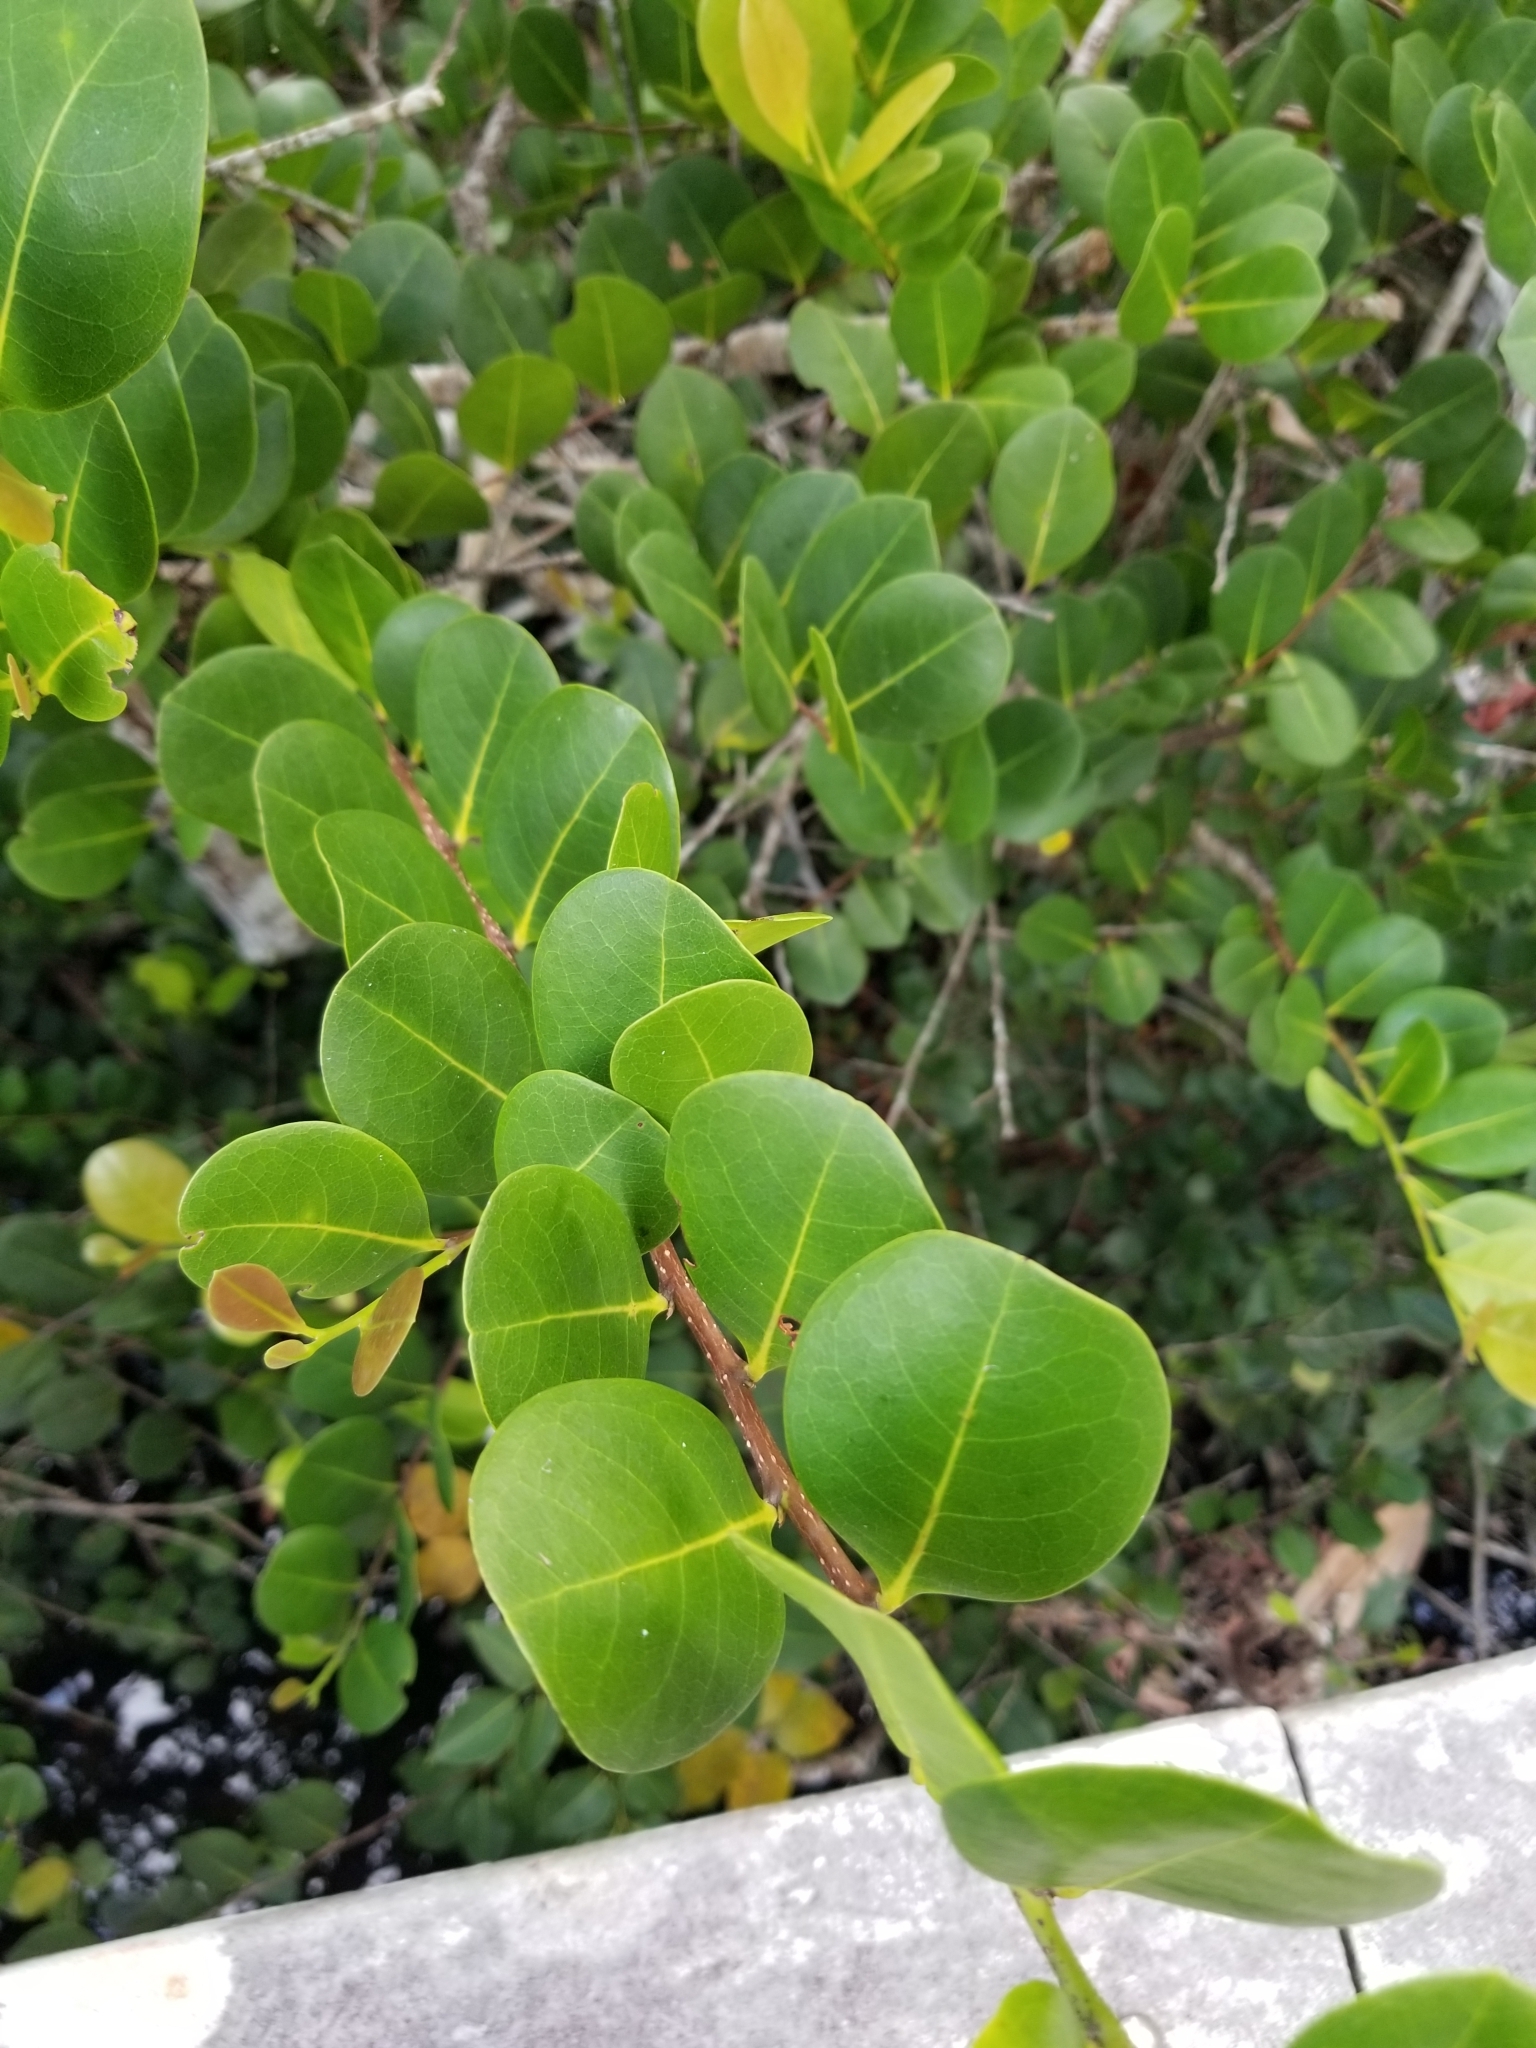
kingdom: Plantae
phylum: Tracheophyta
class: Magnoliopsida
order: Malpighiales
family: Chrysobalanaceae
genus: Chrysobalanus
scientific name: Chrysobalanus icaco
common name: Coco plum
